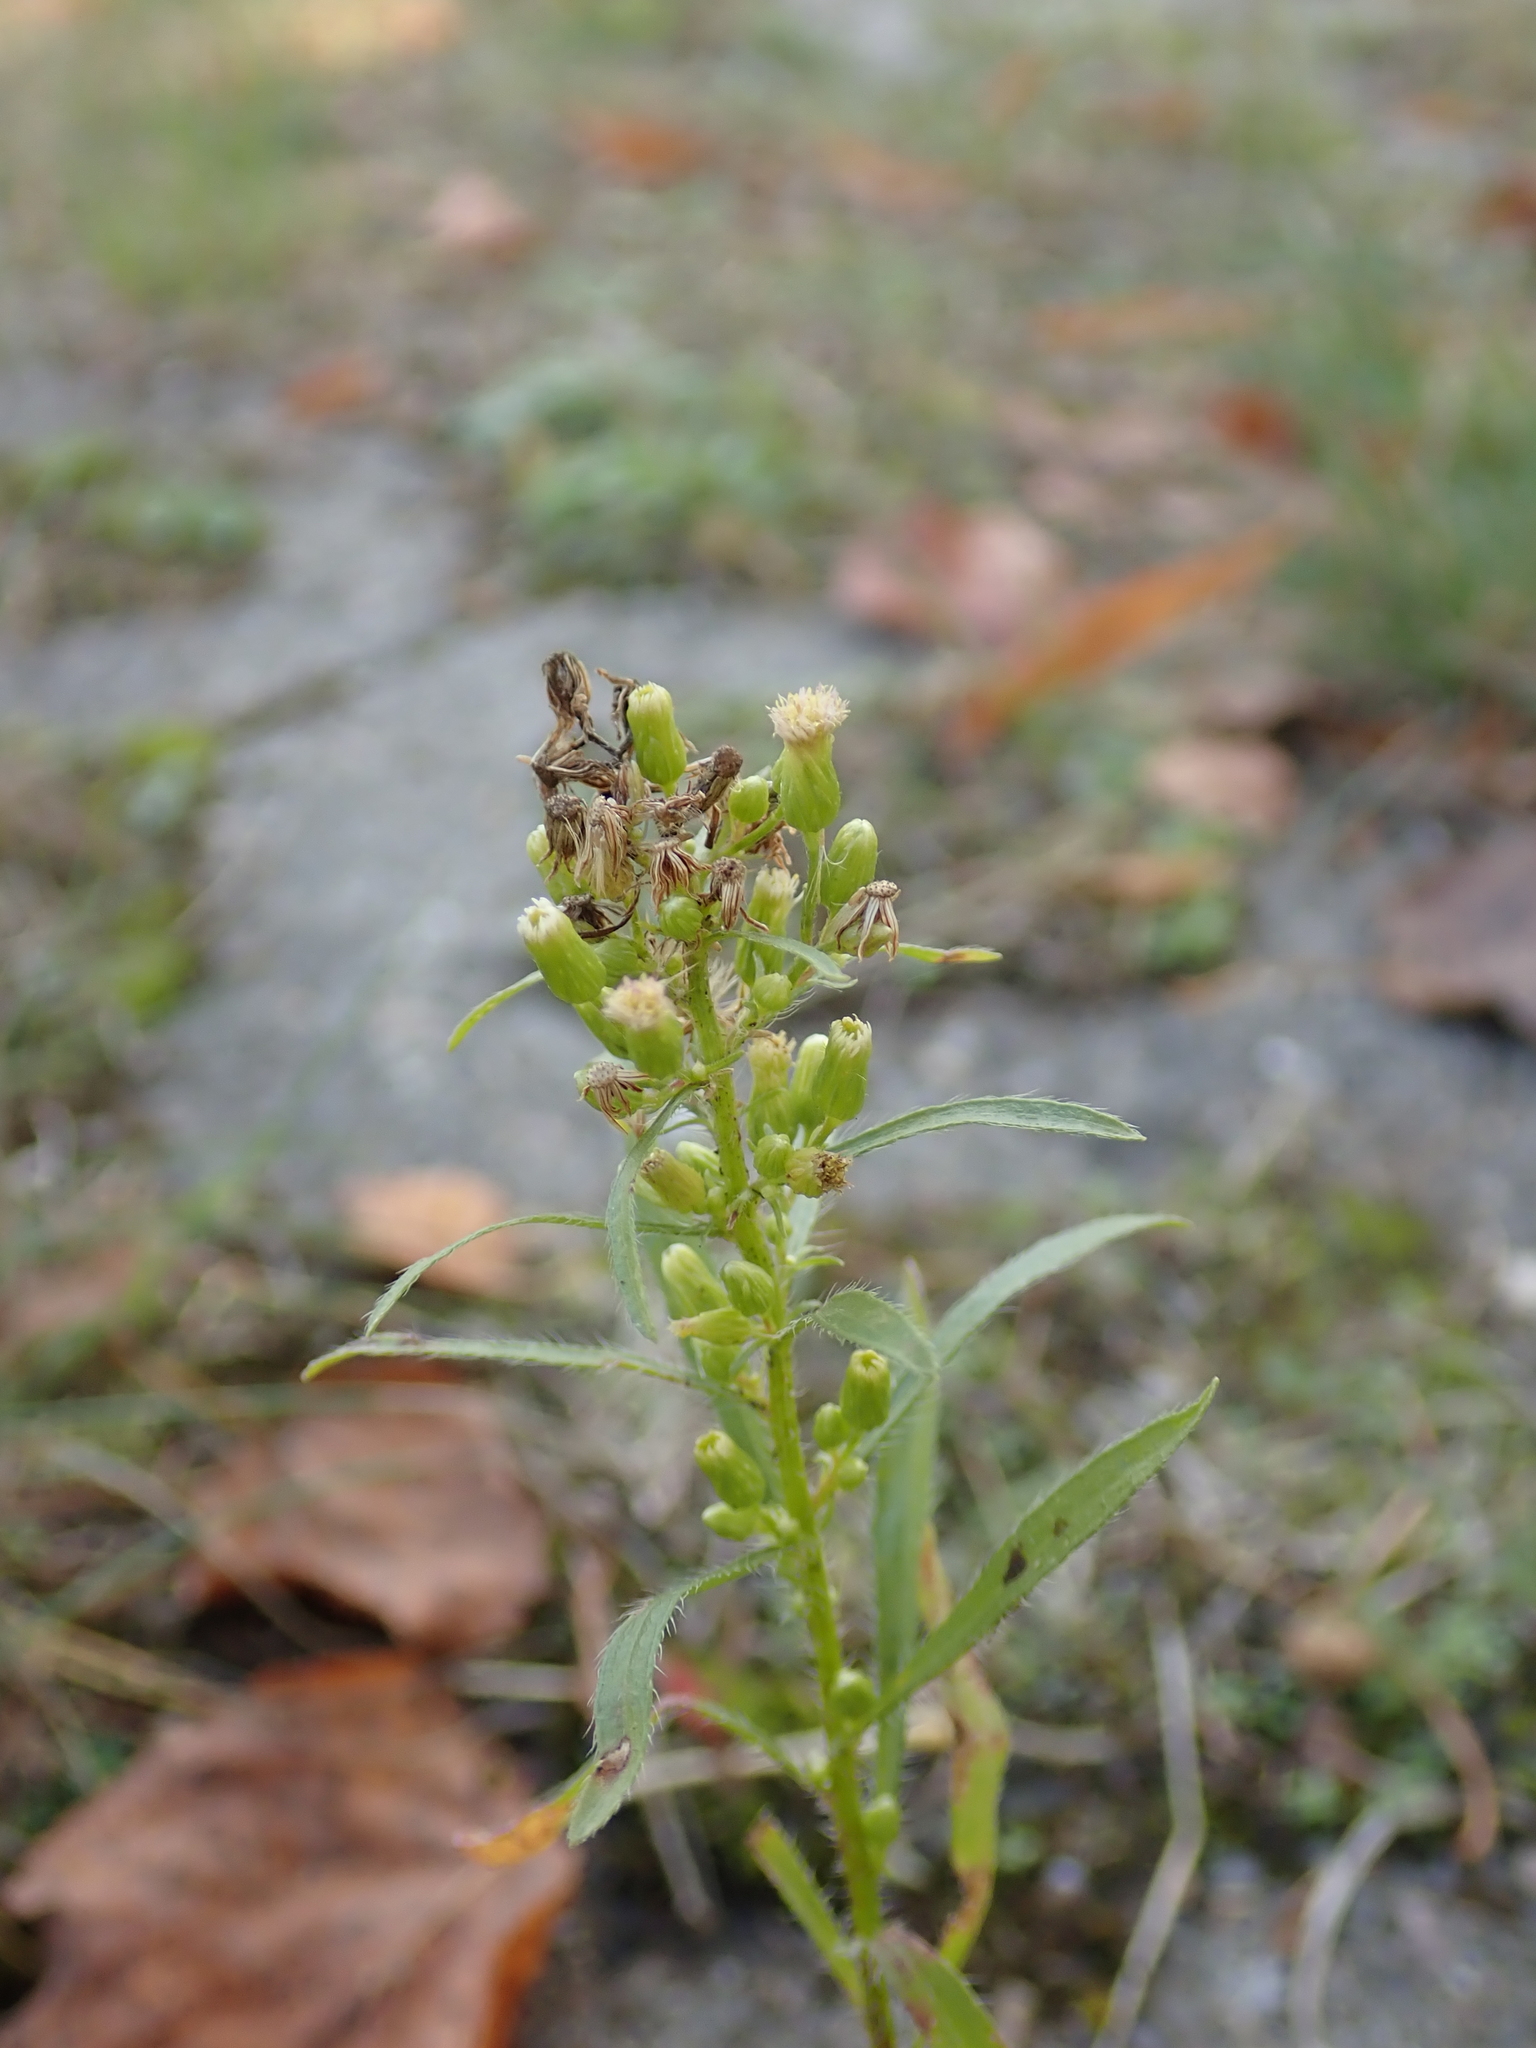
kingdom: Plantae
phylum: Tracheophyta
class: Magnoliopsida
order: Asterales
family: Asteraceae
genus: Erigeron
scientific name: Erigeron canadensis
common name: Canadian fleabane
